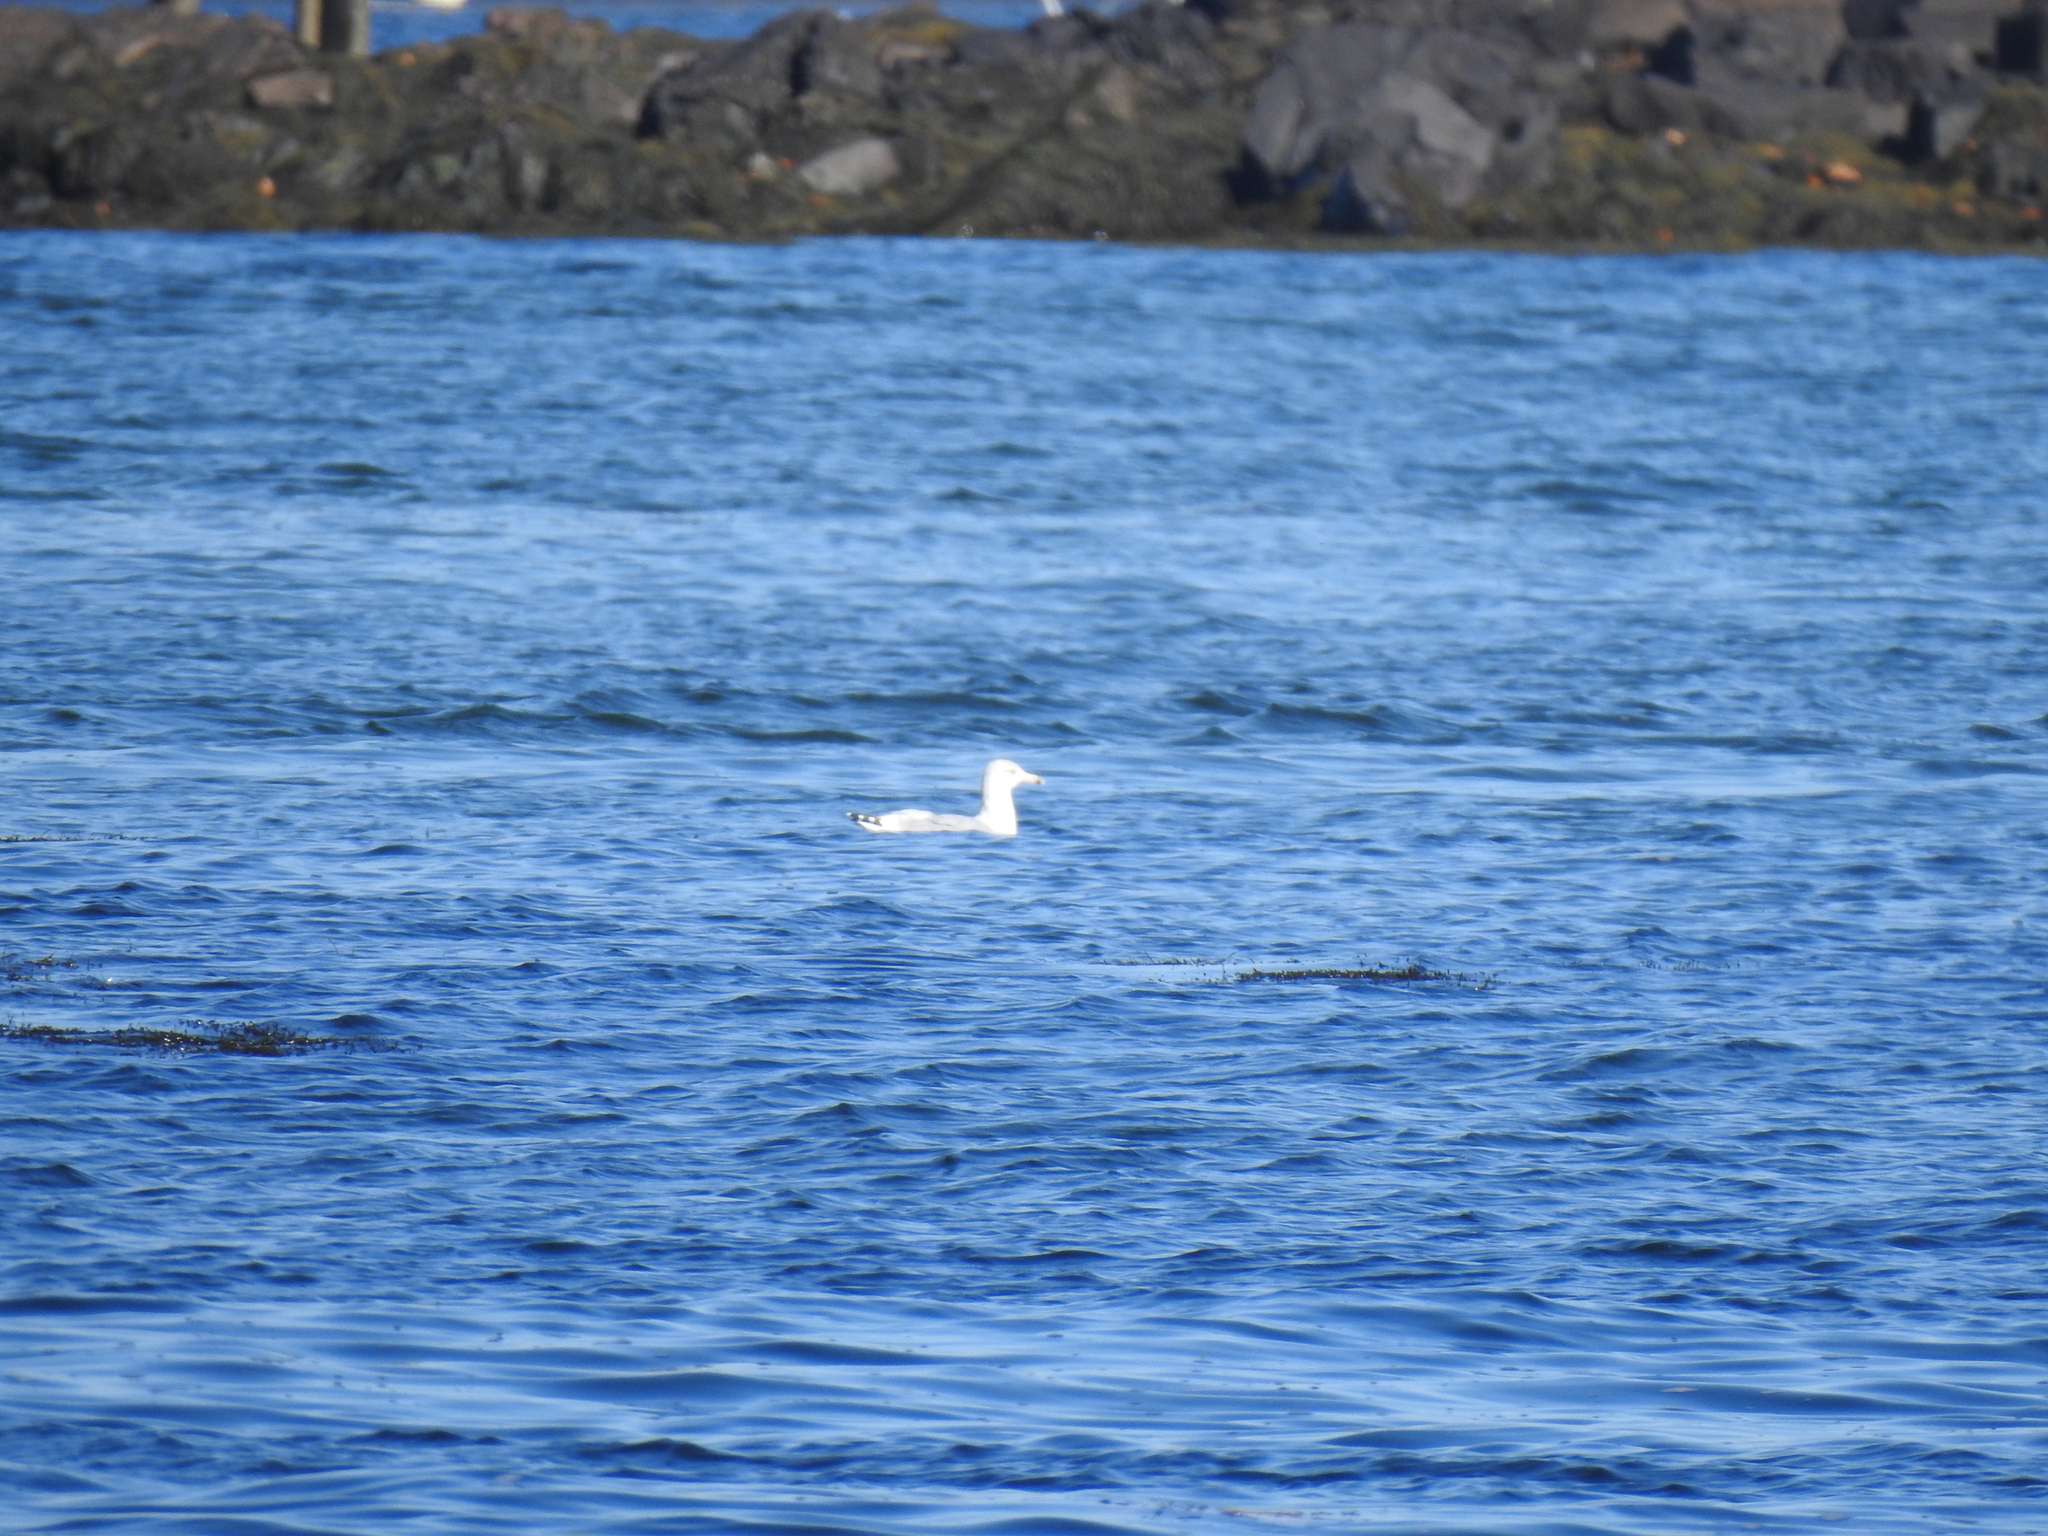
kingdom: Animalia
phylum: Chordata
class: Aves
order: Charadriiformes
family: Laridae
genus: Larus
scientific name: Larus delawarensis
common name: Ring-billed gull
